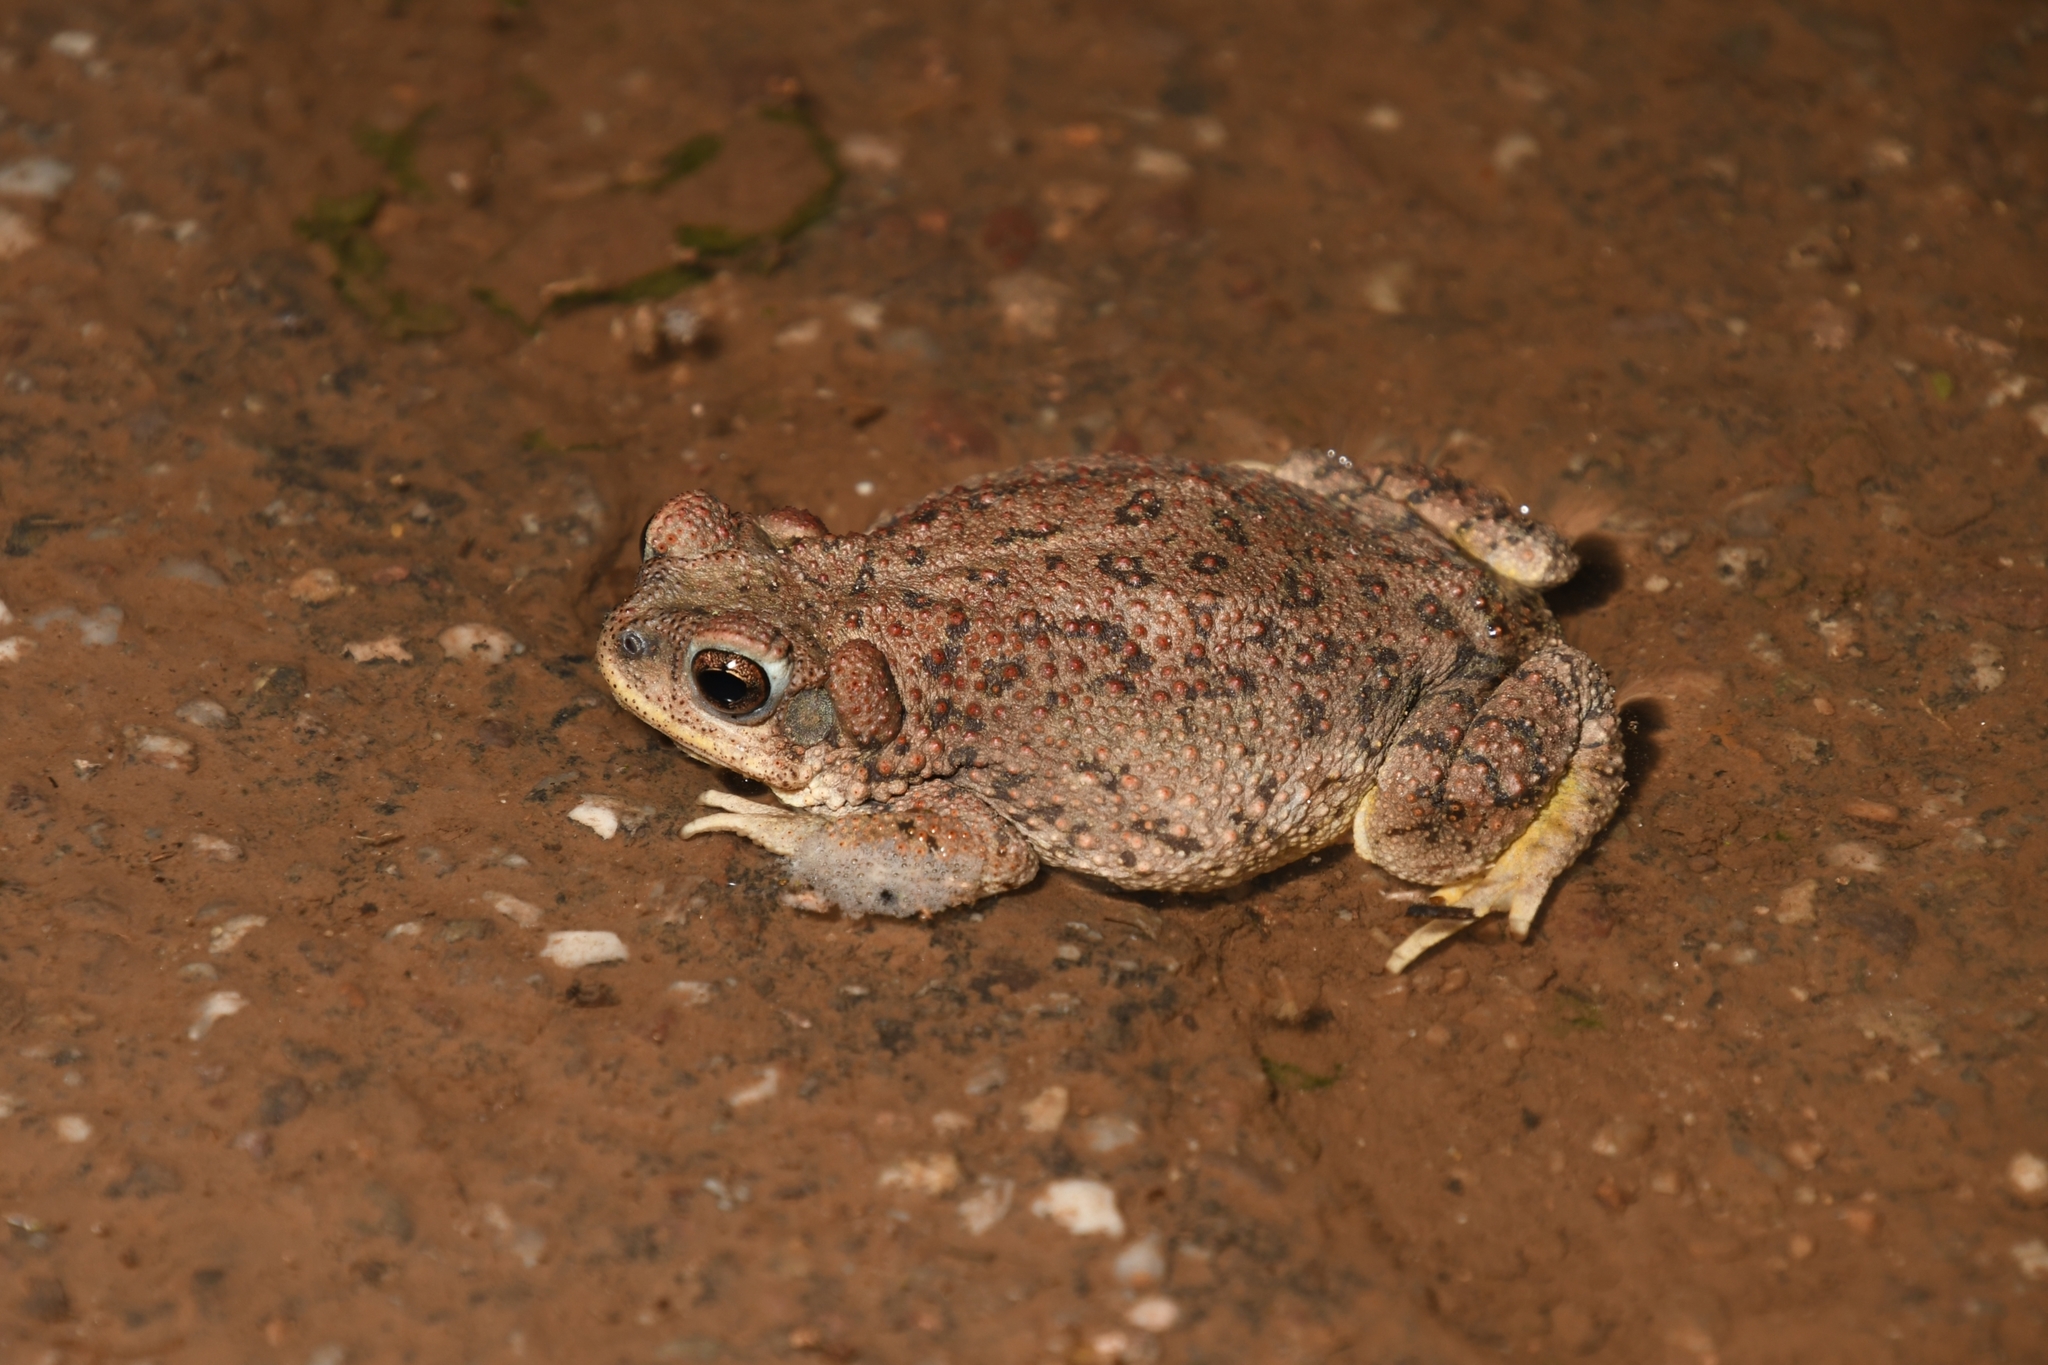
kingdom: Animalia
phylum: Chordata
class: Amphibia
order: Anura
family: Bufonidae
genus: Anaxyrus
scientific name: Anaxyrus punctatus
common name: Red-spotted toad
